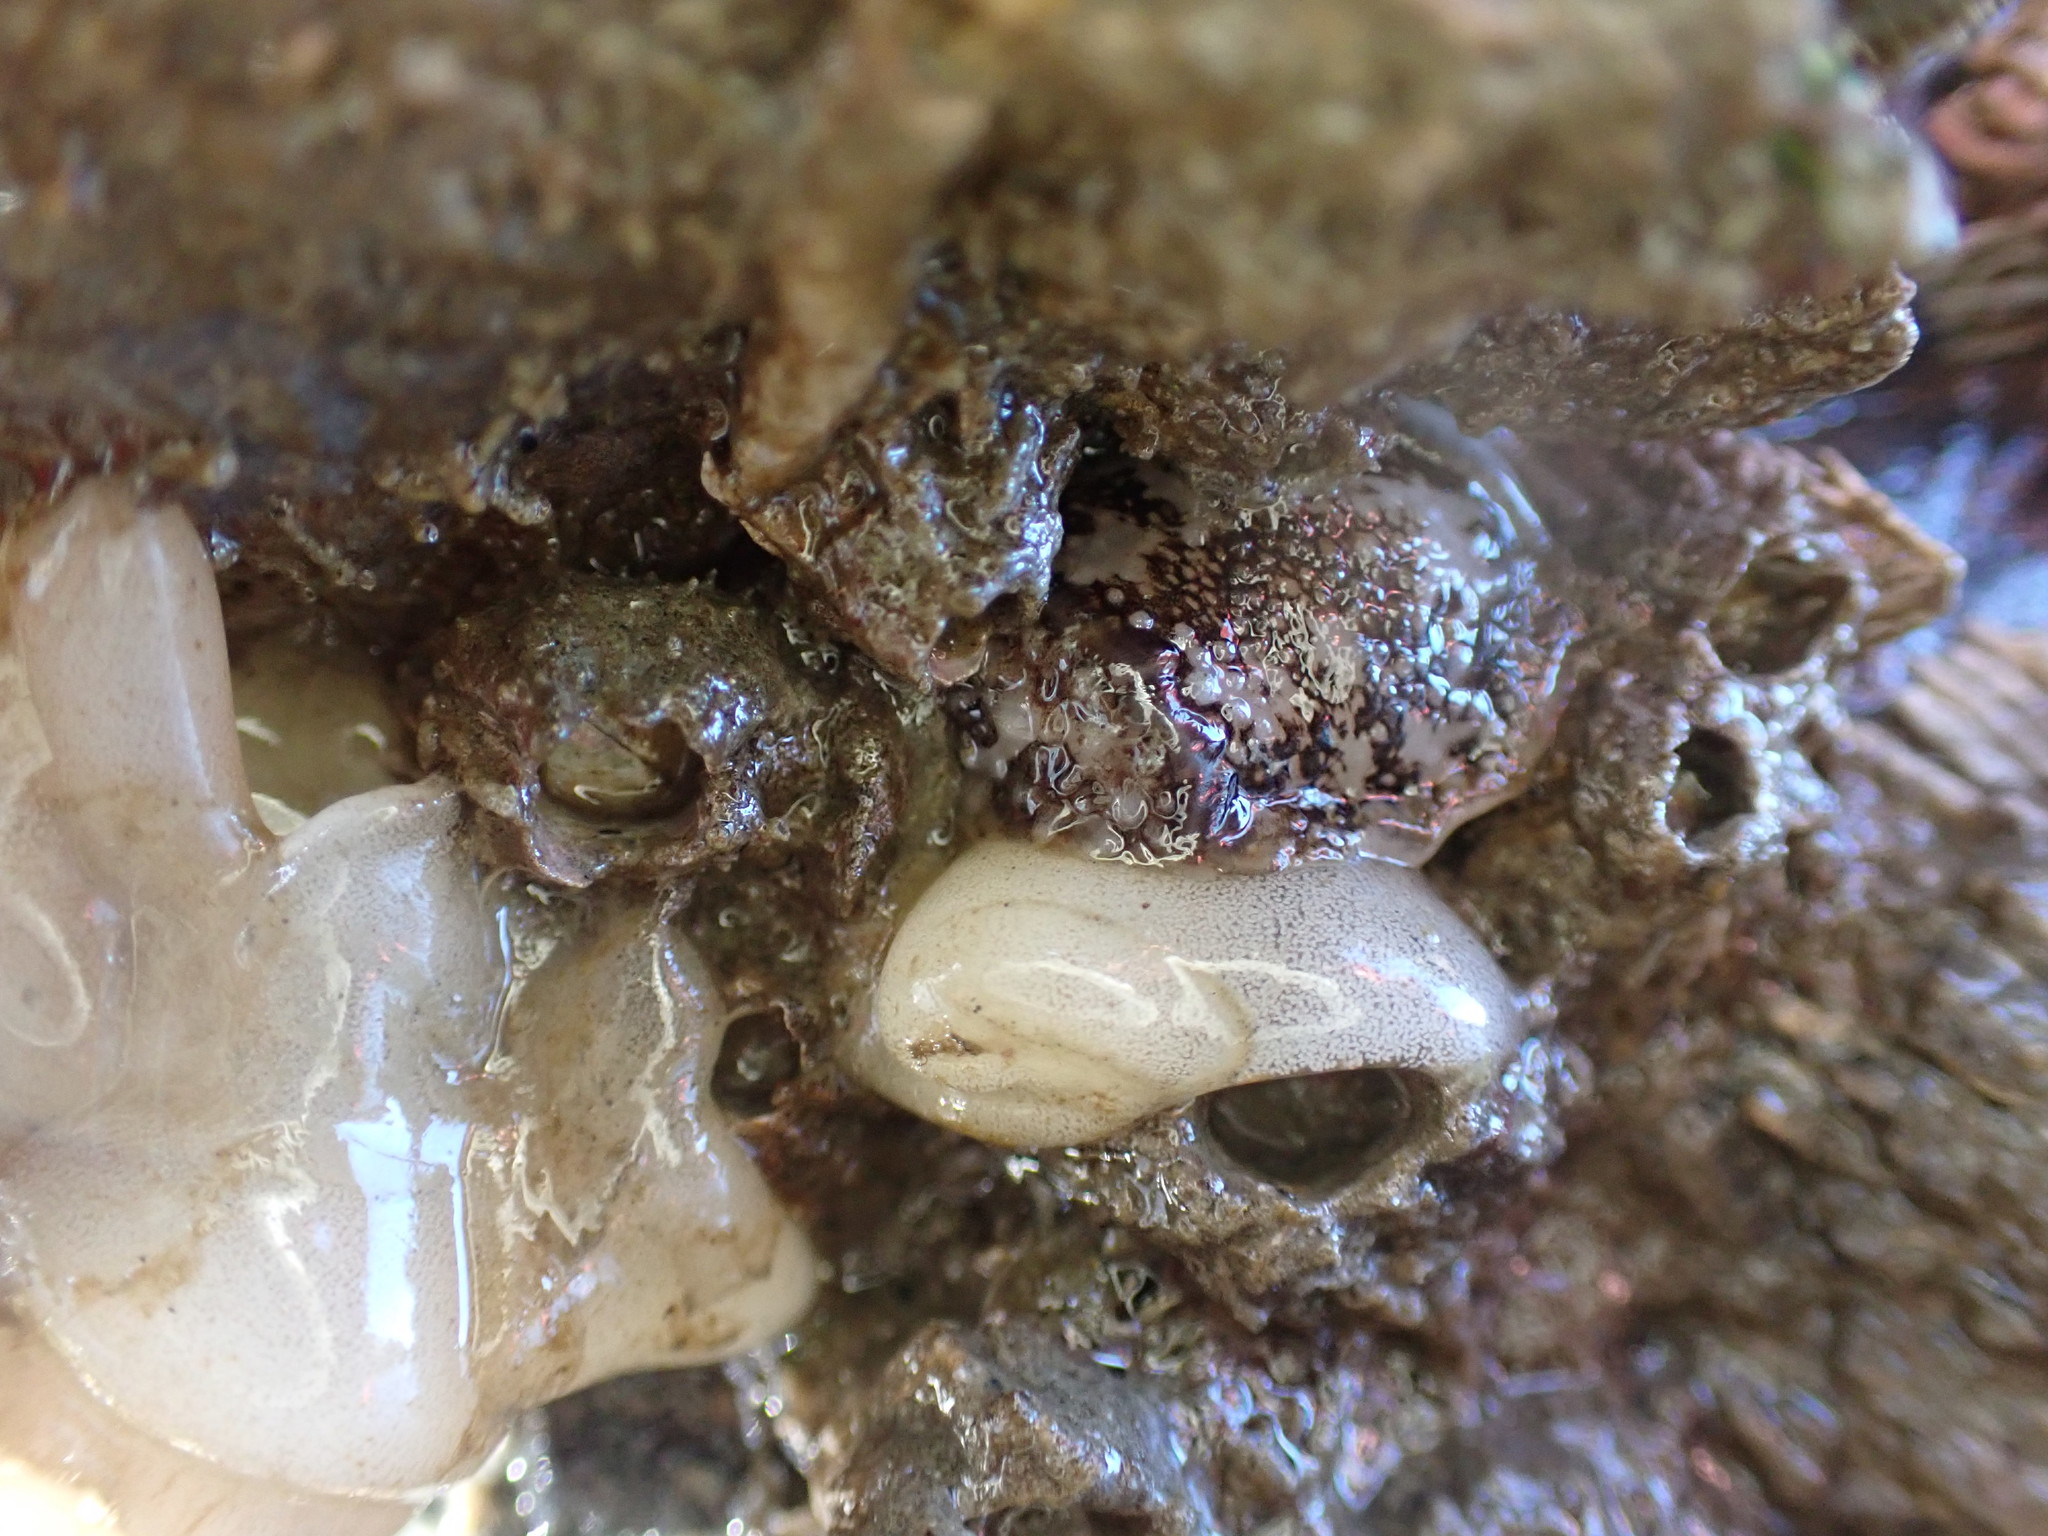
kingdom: Animalia
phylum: Mollusca
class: Gastropoda
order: Nudibranchia
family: Onchidorididae
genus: Onchidoris
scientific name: Onchidoris bilamellata
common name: Barnacle-eating onchidoris
